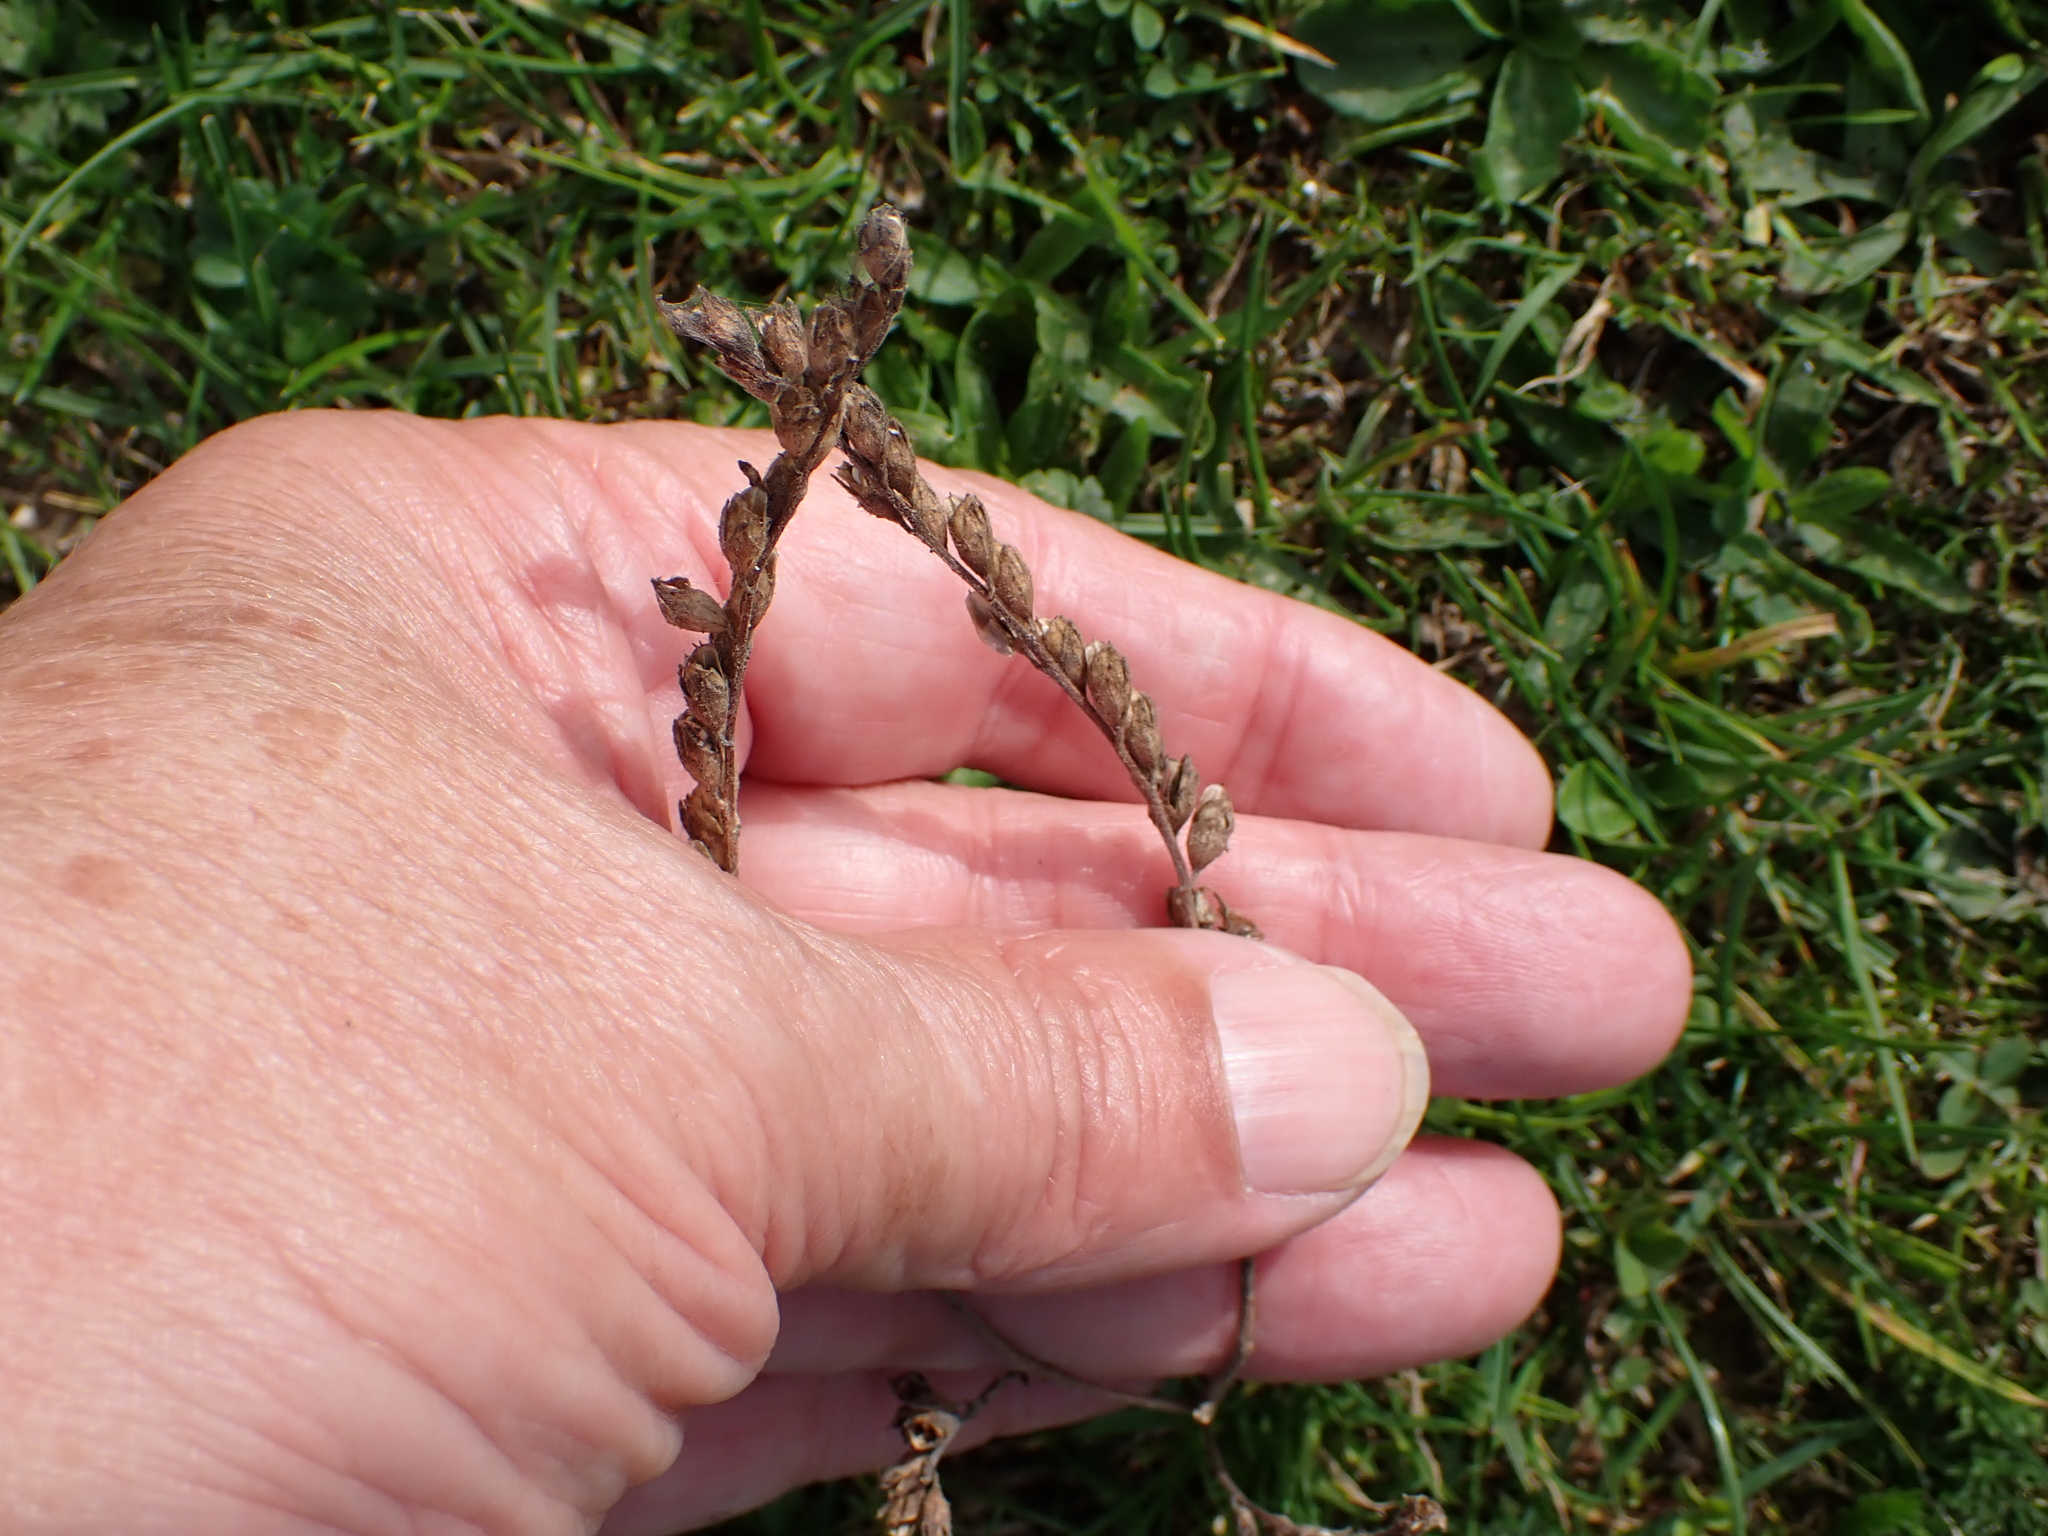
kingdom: Plantae
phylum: Tracheophyta
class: Magnoliopsida
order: Lamiales
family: Orobanchaceae
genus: Odontites
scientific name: Odontites vulgaris
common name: Broomrape
